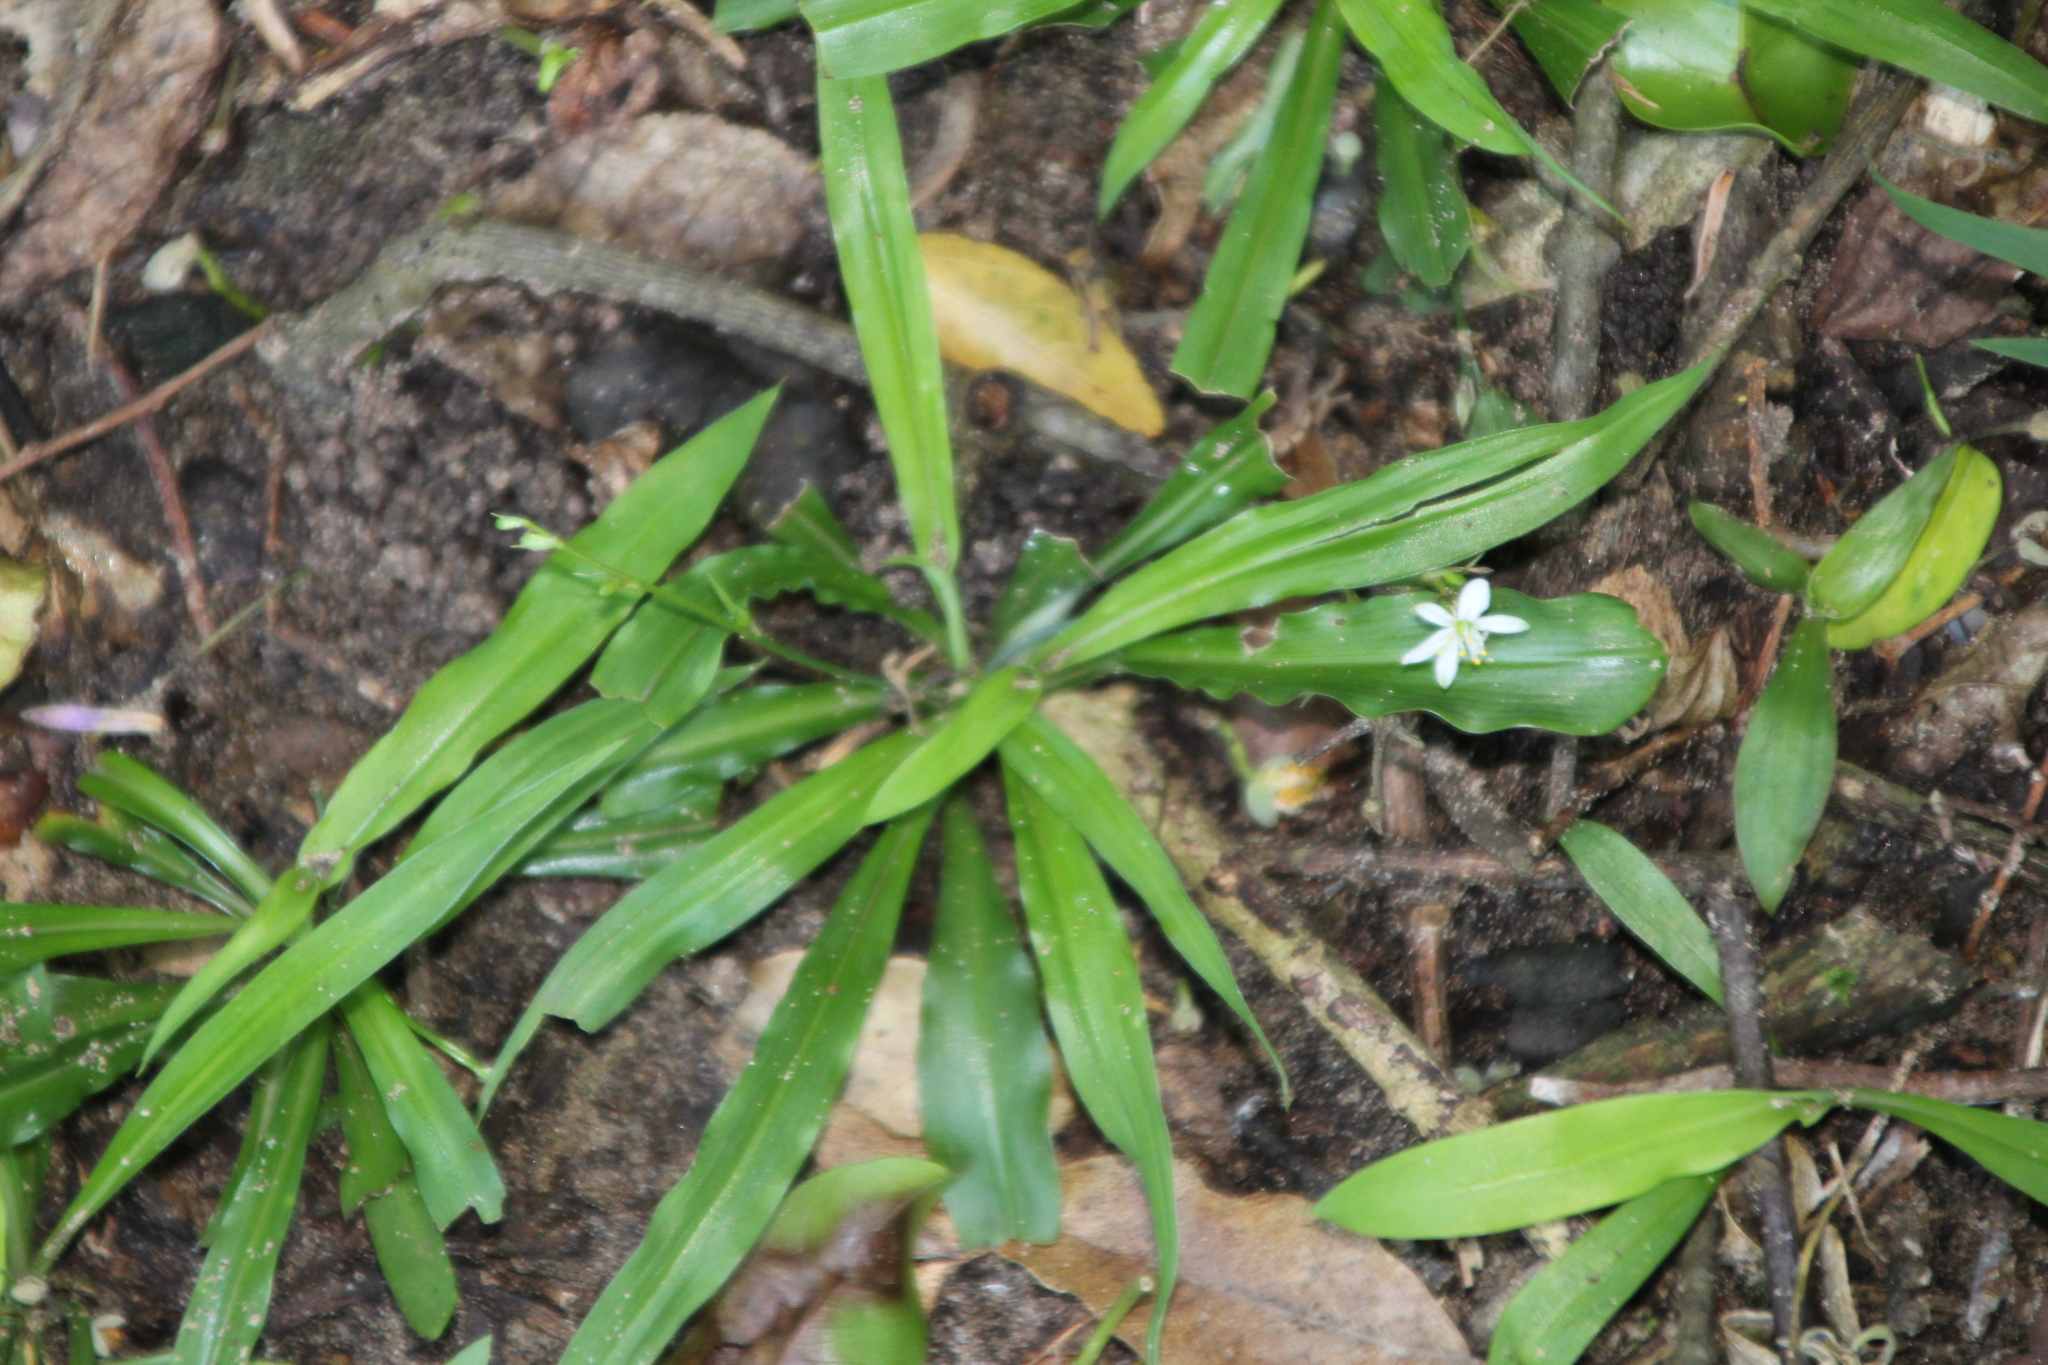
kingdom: Plantae
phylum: Tracheophyta
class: Liliopsida
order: Asparagales
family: Asparagaceae
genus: Chlorophytum
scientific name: Chlorophytum modestum
